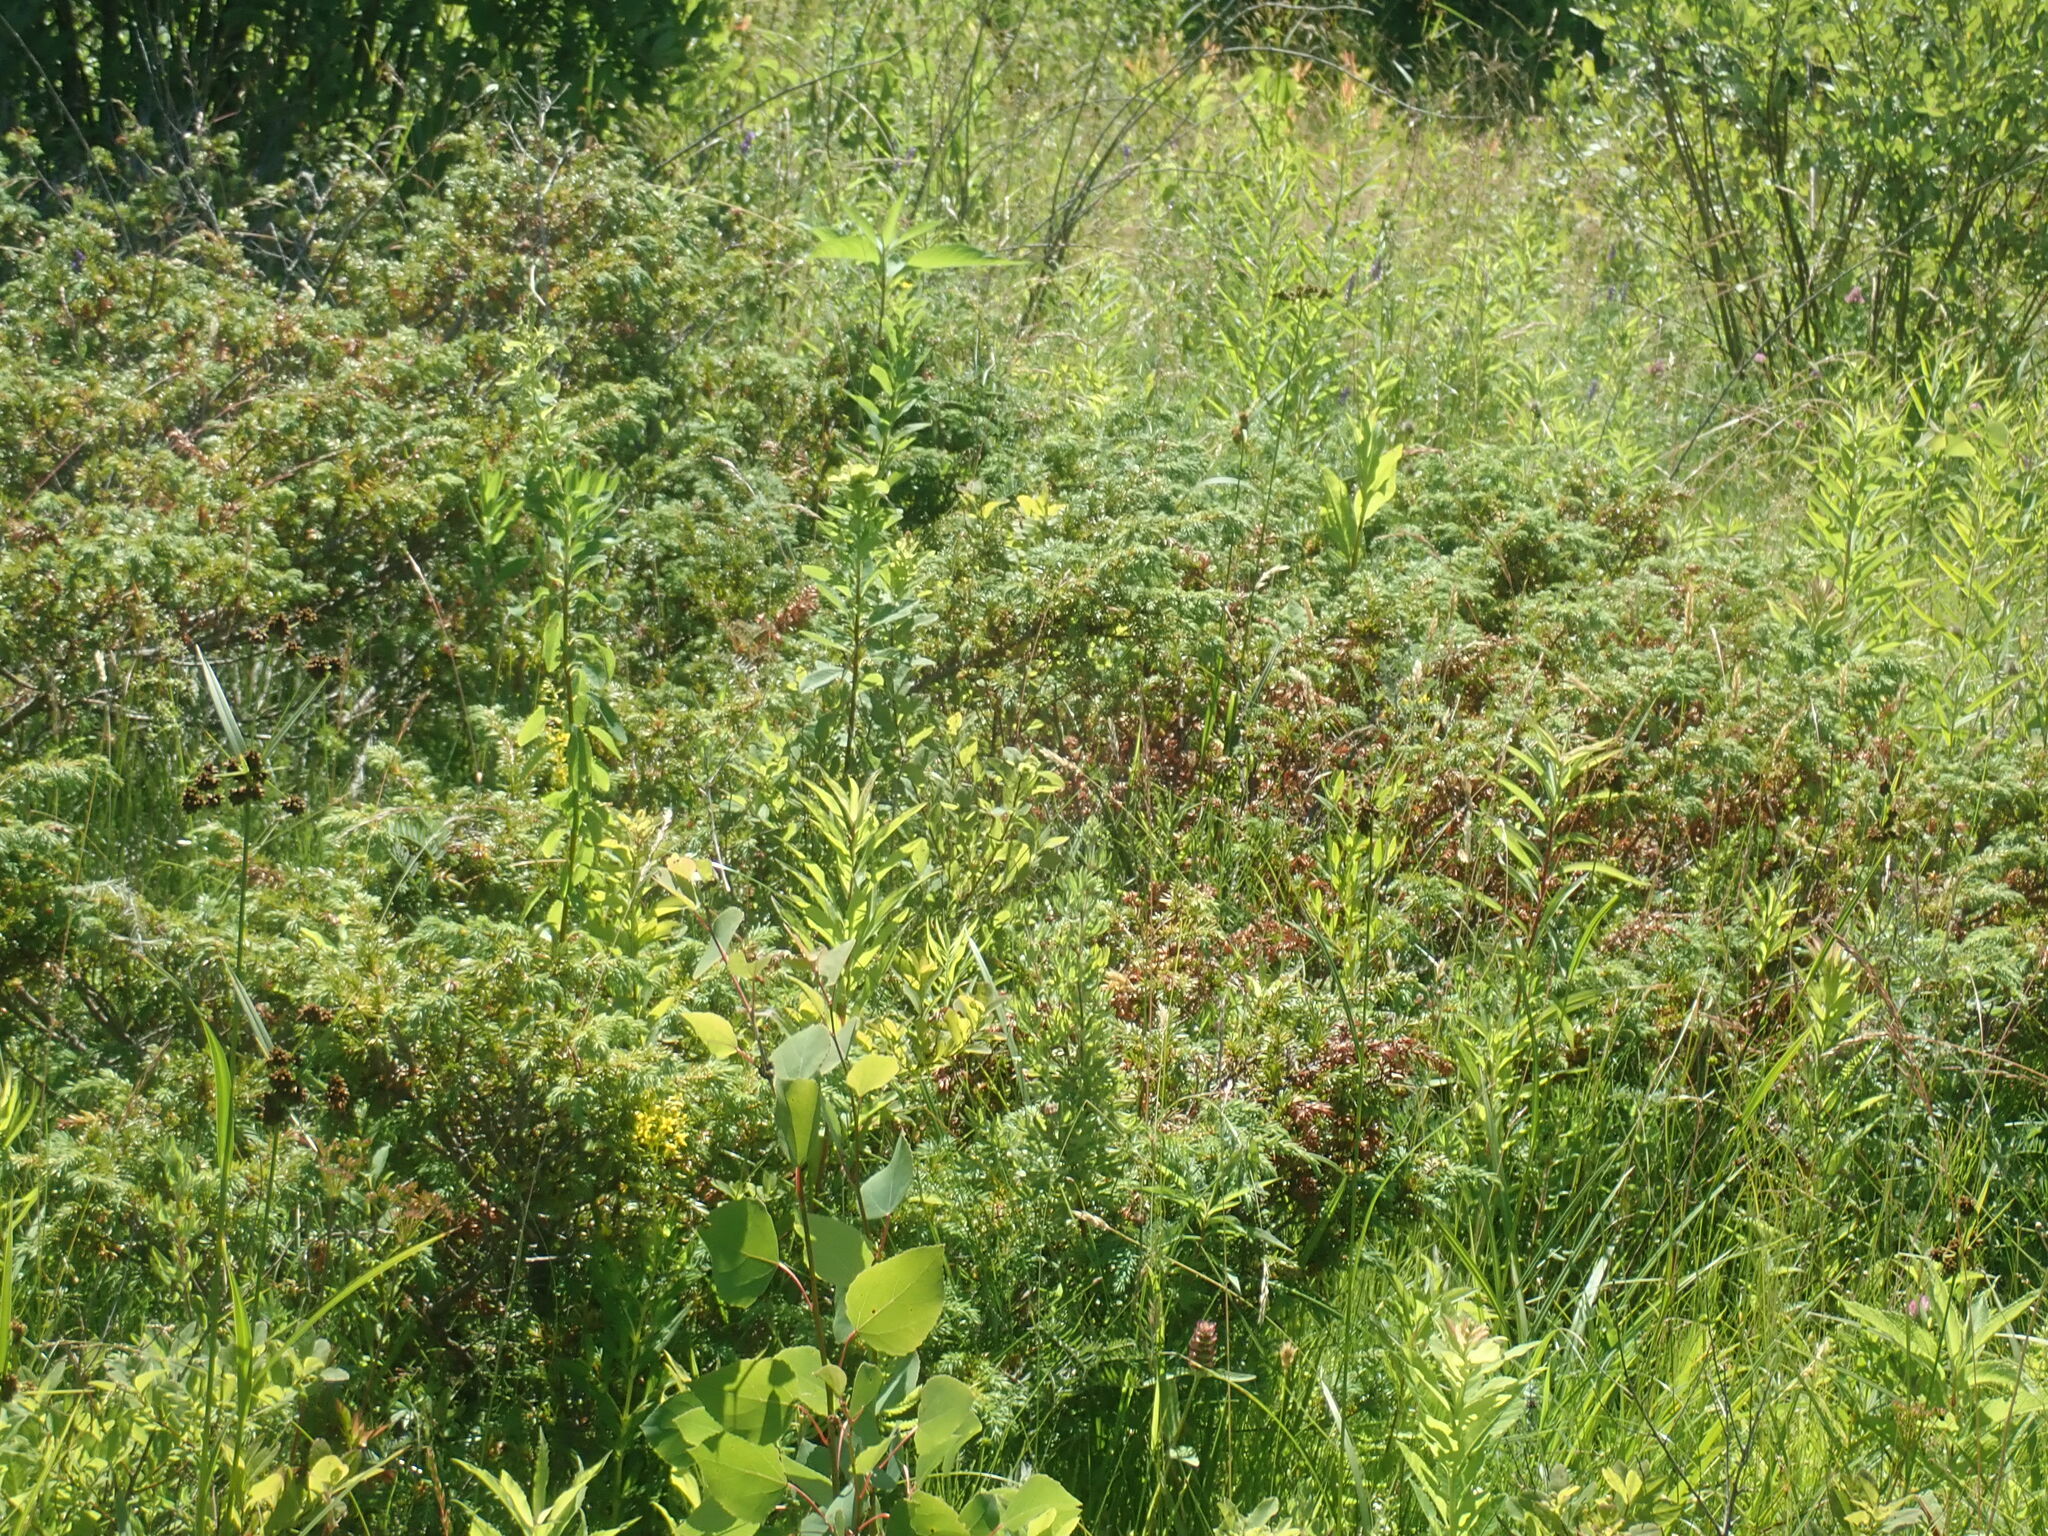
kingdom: Plantae
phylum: Tracheophyta
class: Pinopsida
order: Pinales
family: Cupressaceae
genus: Juniperus
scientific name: Juniperus communis
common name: Common juniper
